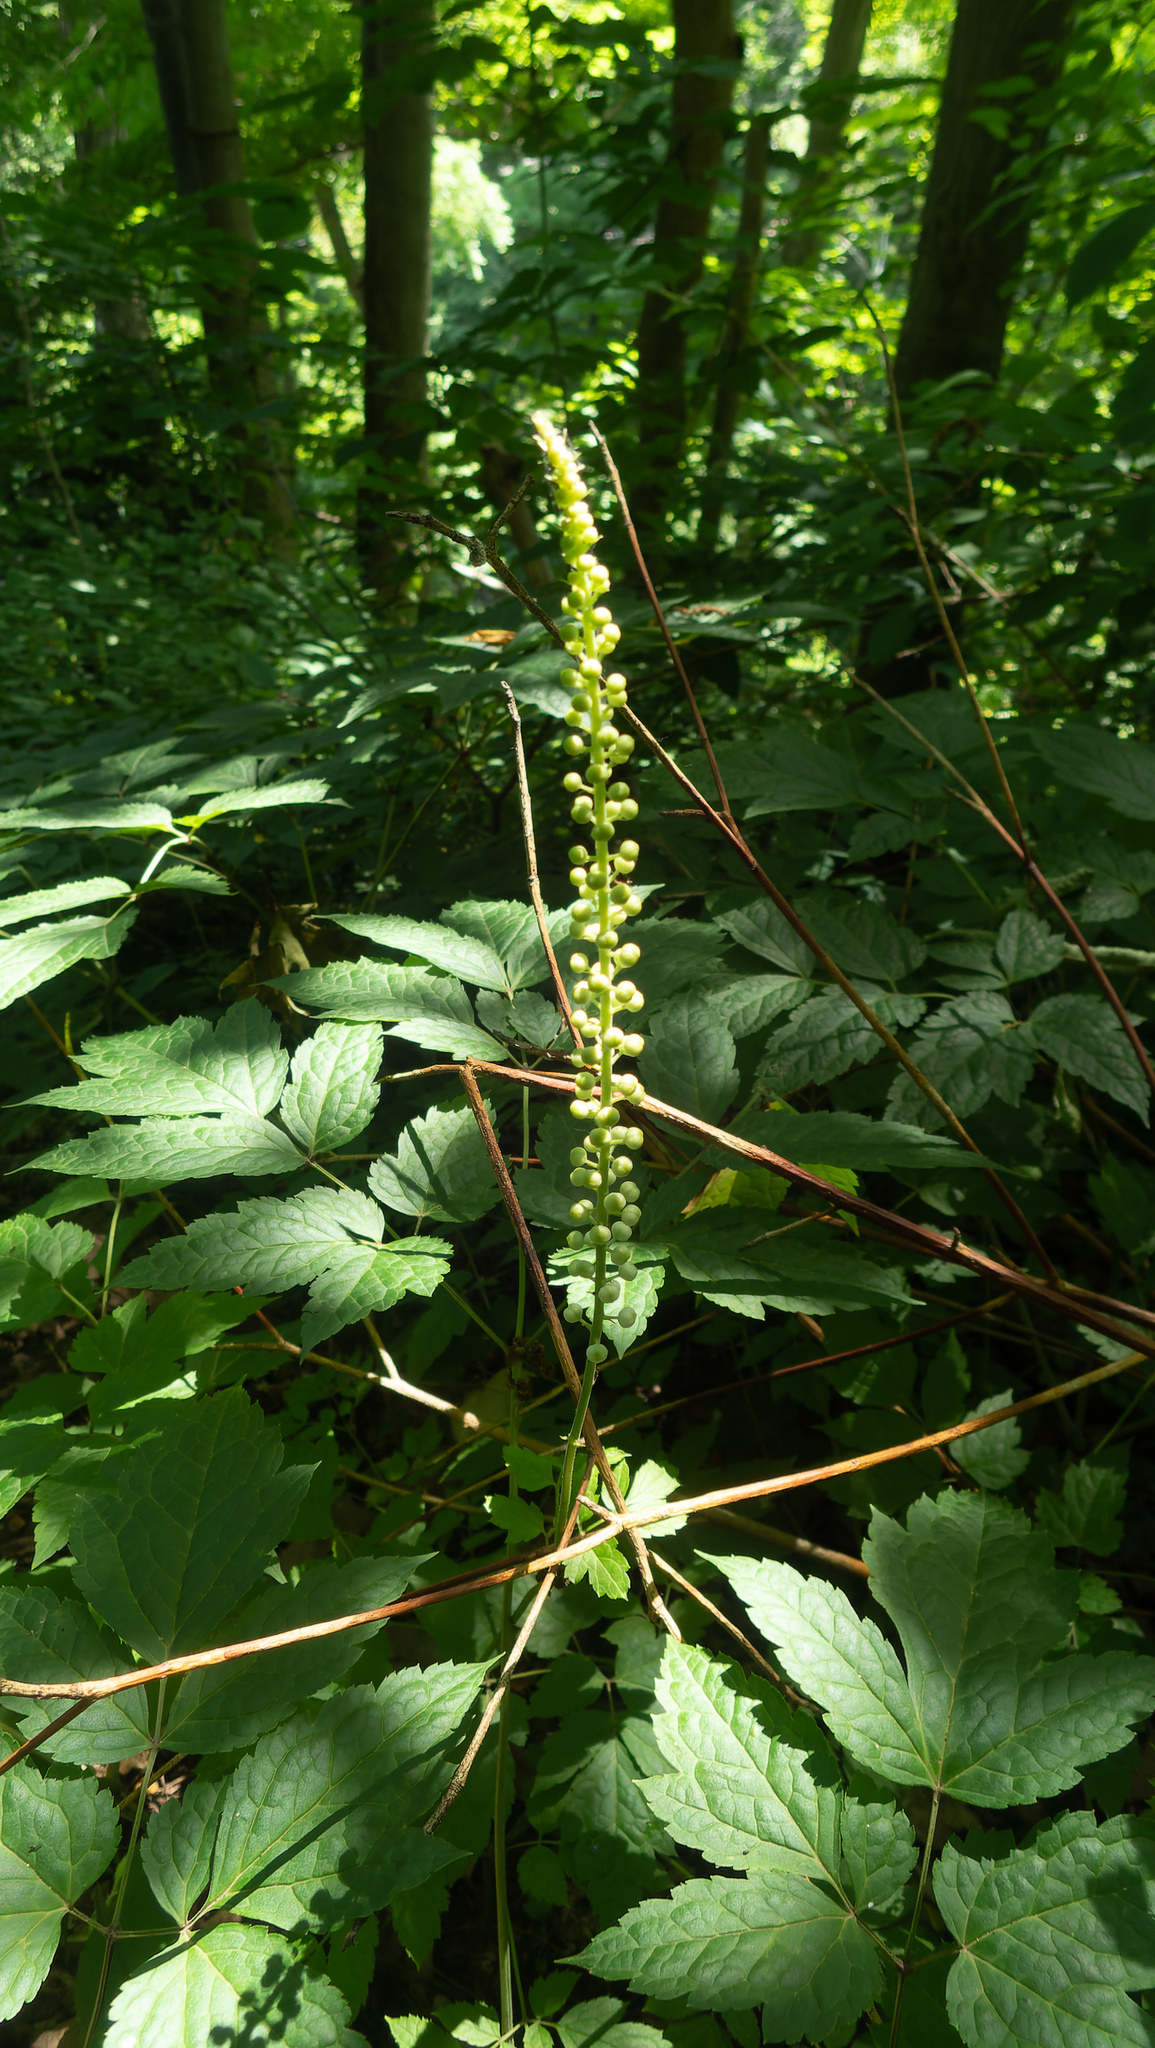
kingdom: Plantae
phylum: Tracheophyta
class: Magnoliopsida
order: Ranunculales
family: Ranunculaceae
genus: Actaea
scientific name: Actaea racemosa
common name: Black cohosh
